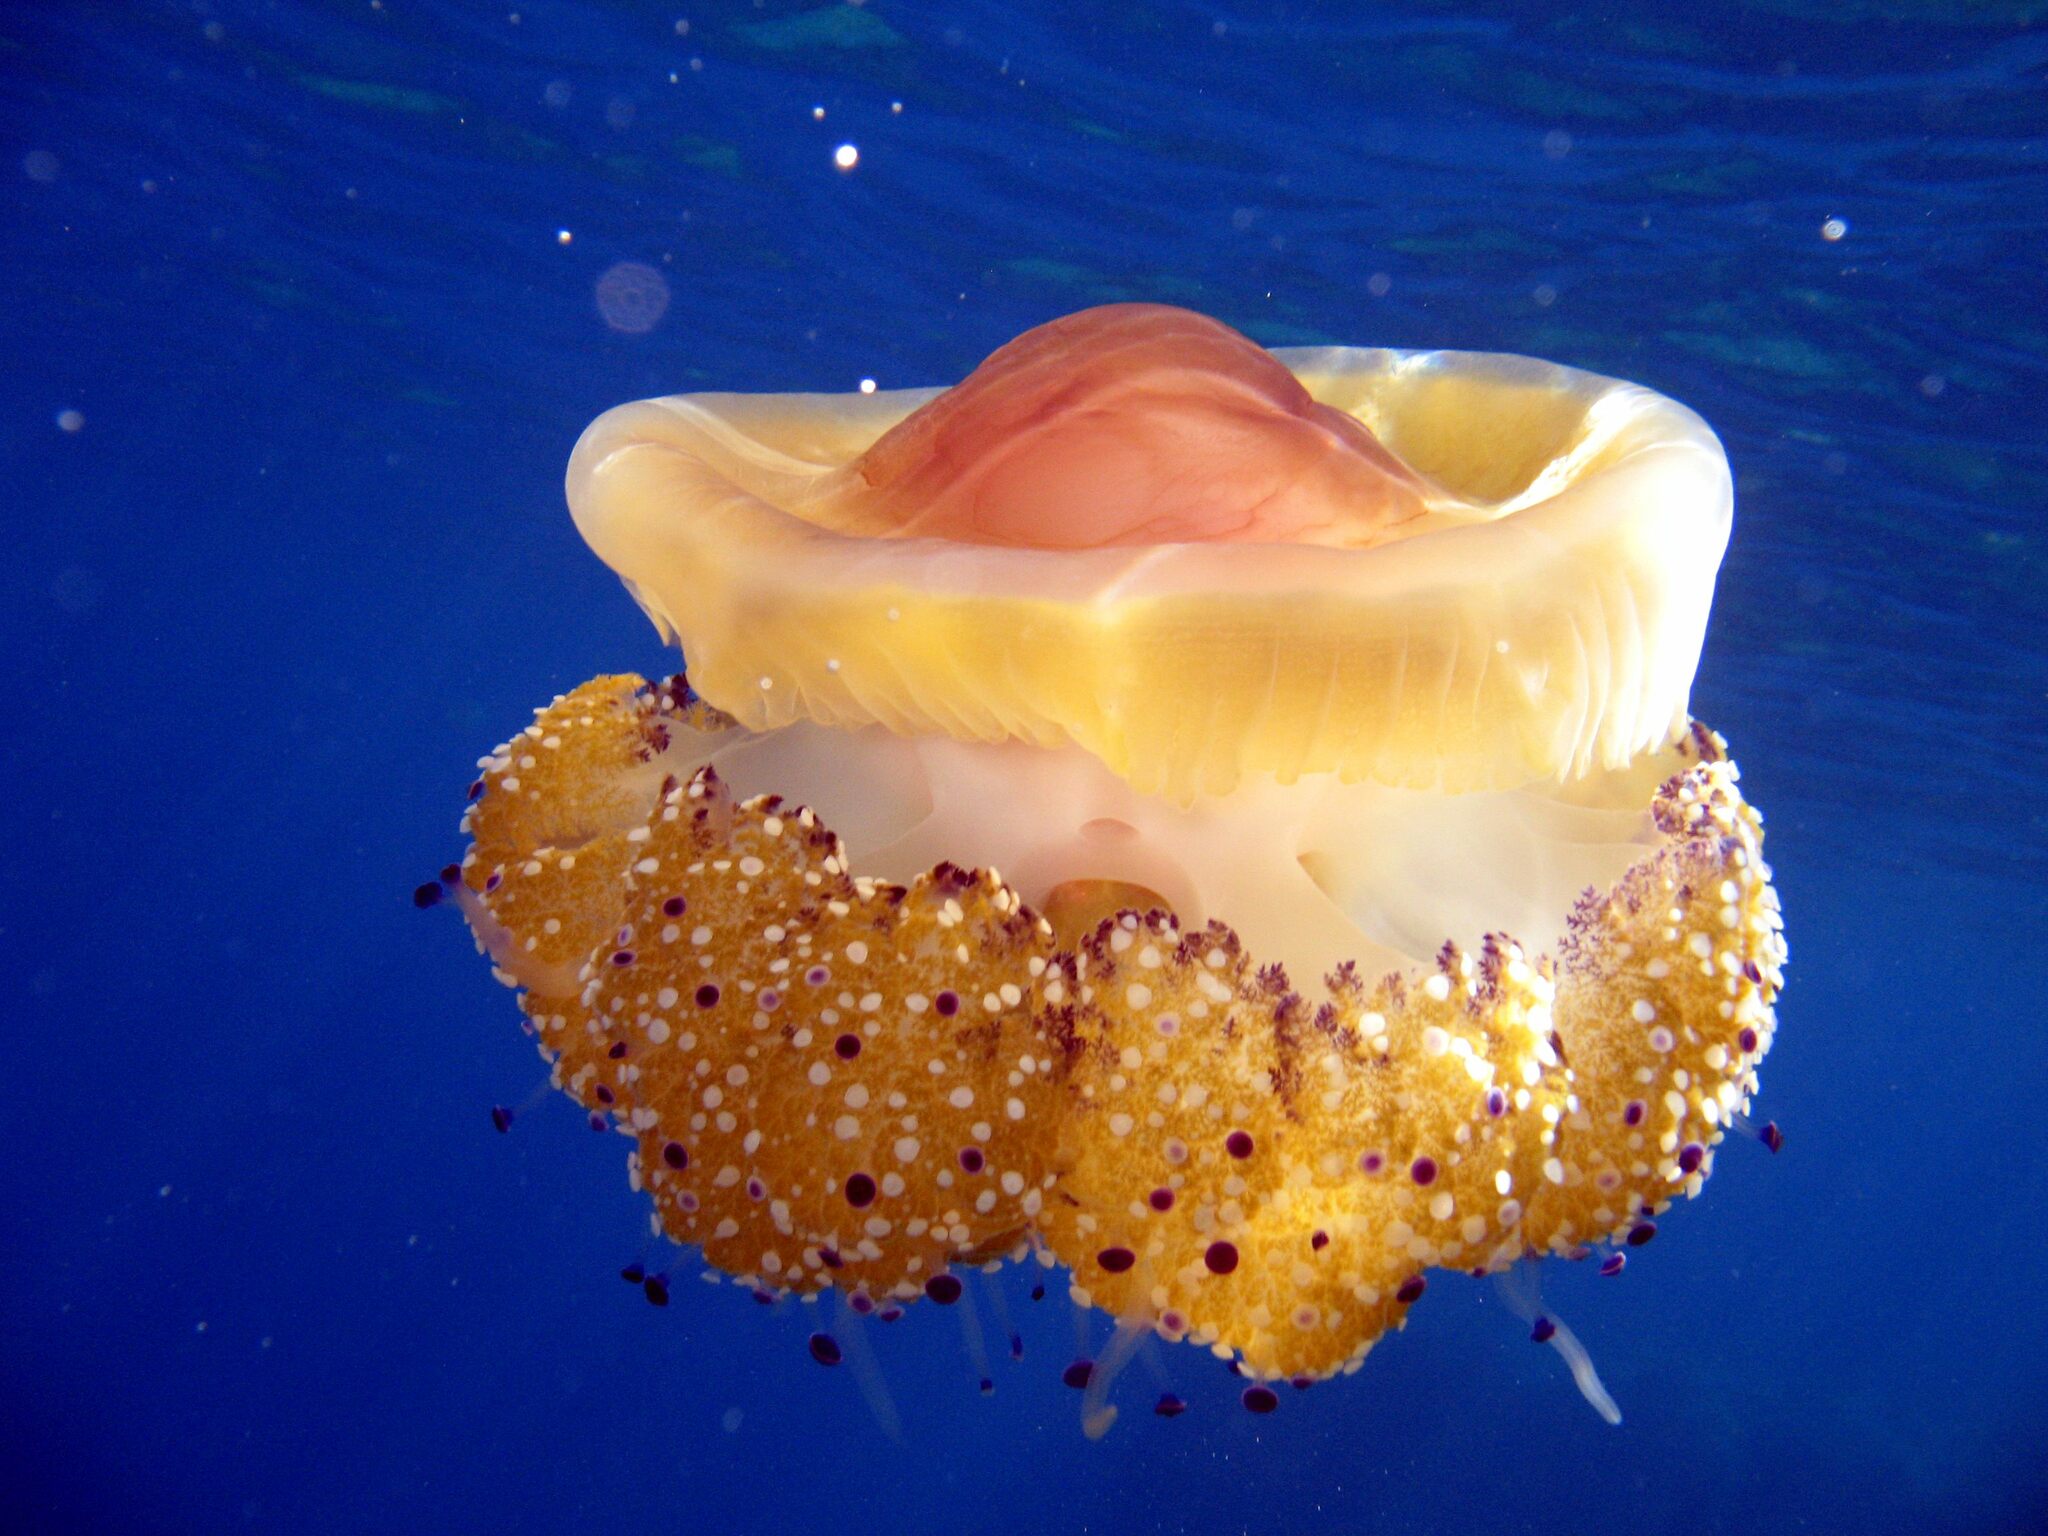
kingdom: Animalia
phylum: Cnidaria
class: Scyphozoa
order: Rhizostomeae
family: Cepheidae
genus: Cotylorhiza
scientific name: Cotylorhiza tuberculata
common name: Mediterranean jelly
